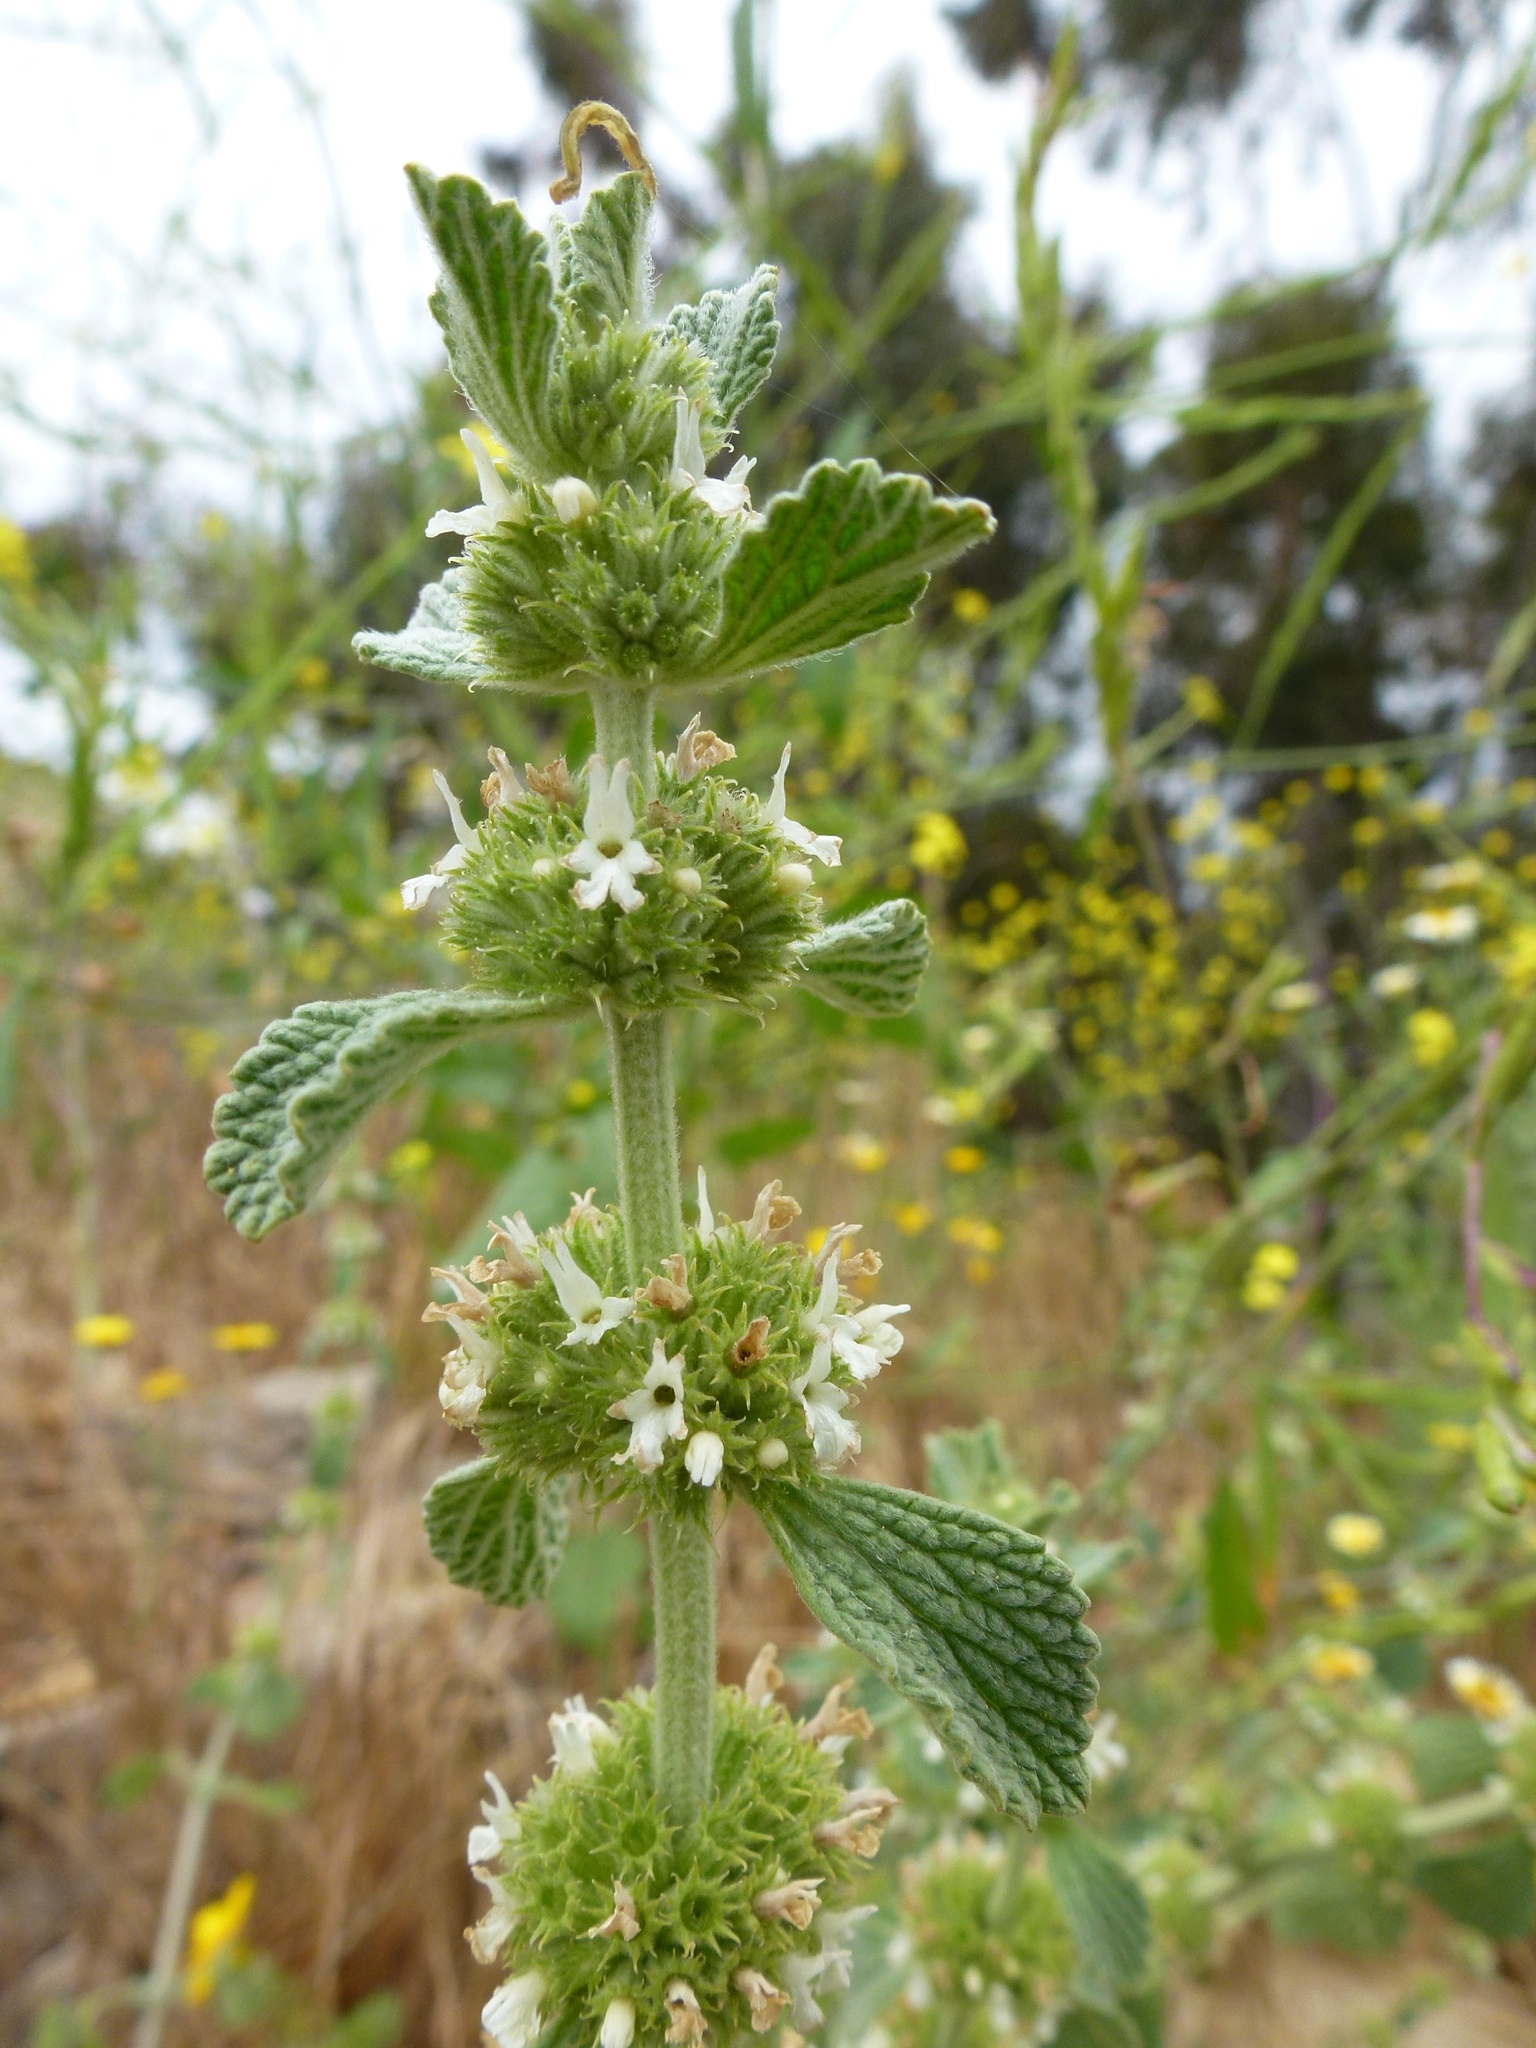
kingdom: Plantae
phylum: Tracheophyta
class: Magnoliopsida
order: Lamiales
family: Lamiaceae
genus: Marrubium
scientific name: Marrubium vulgare
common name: Horehound
